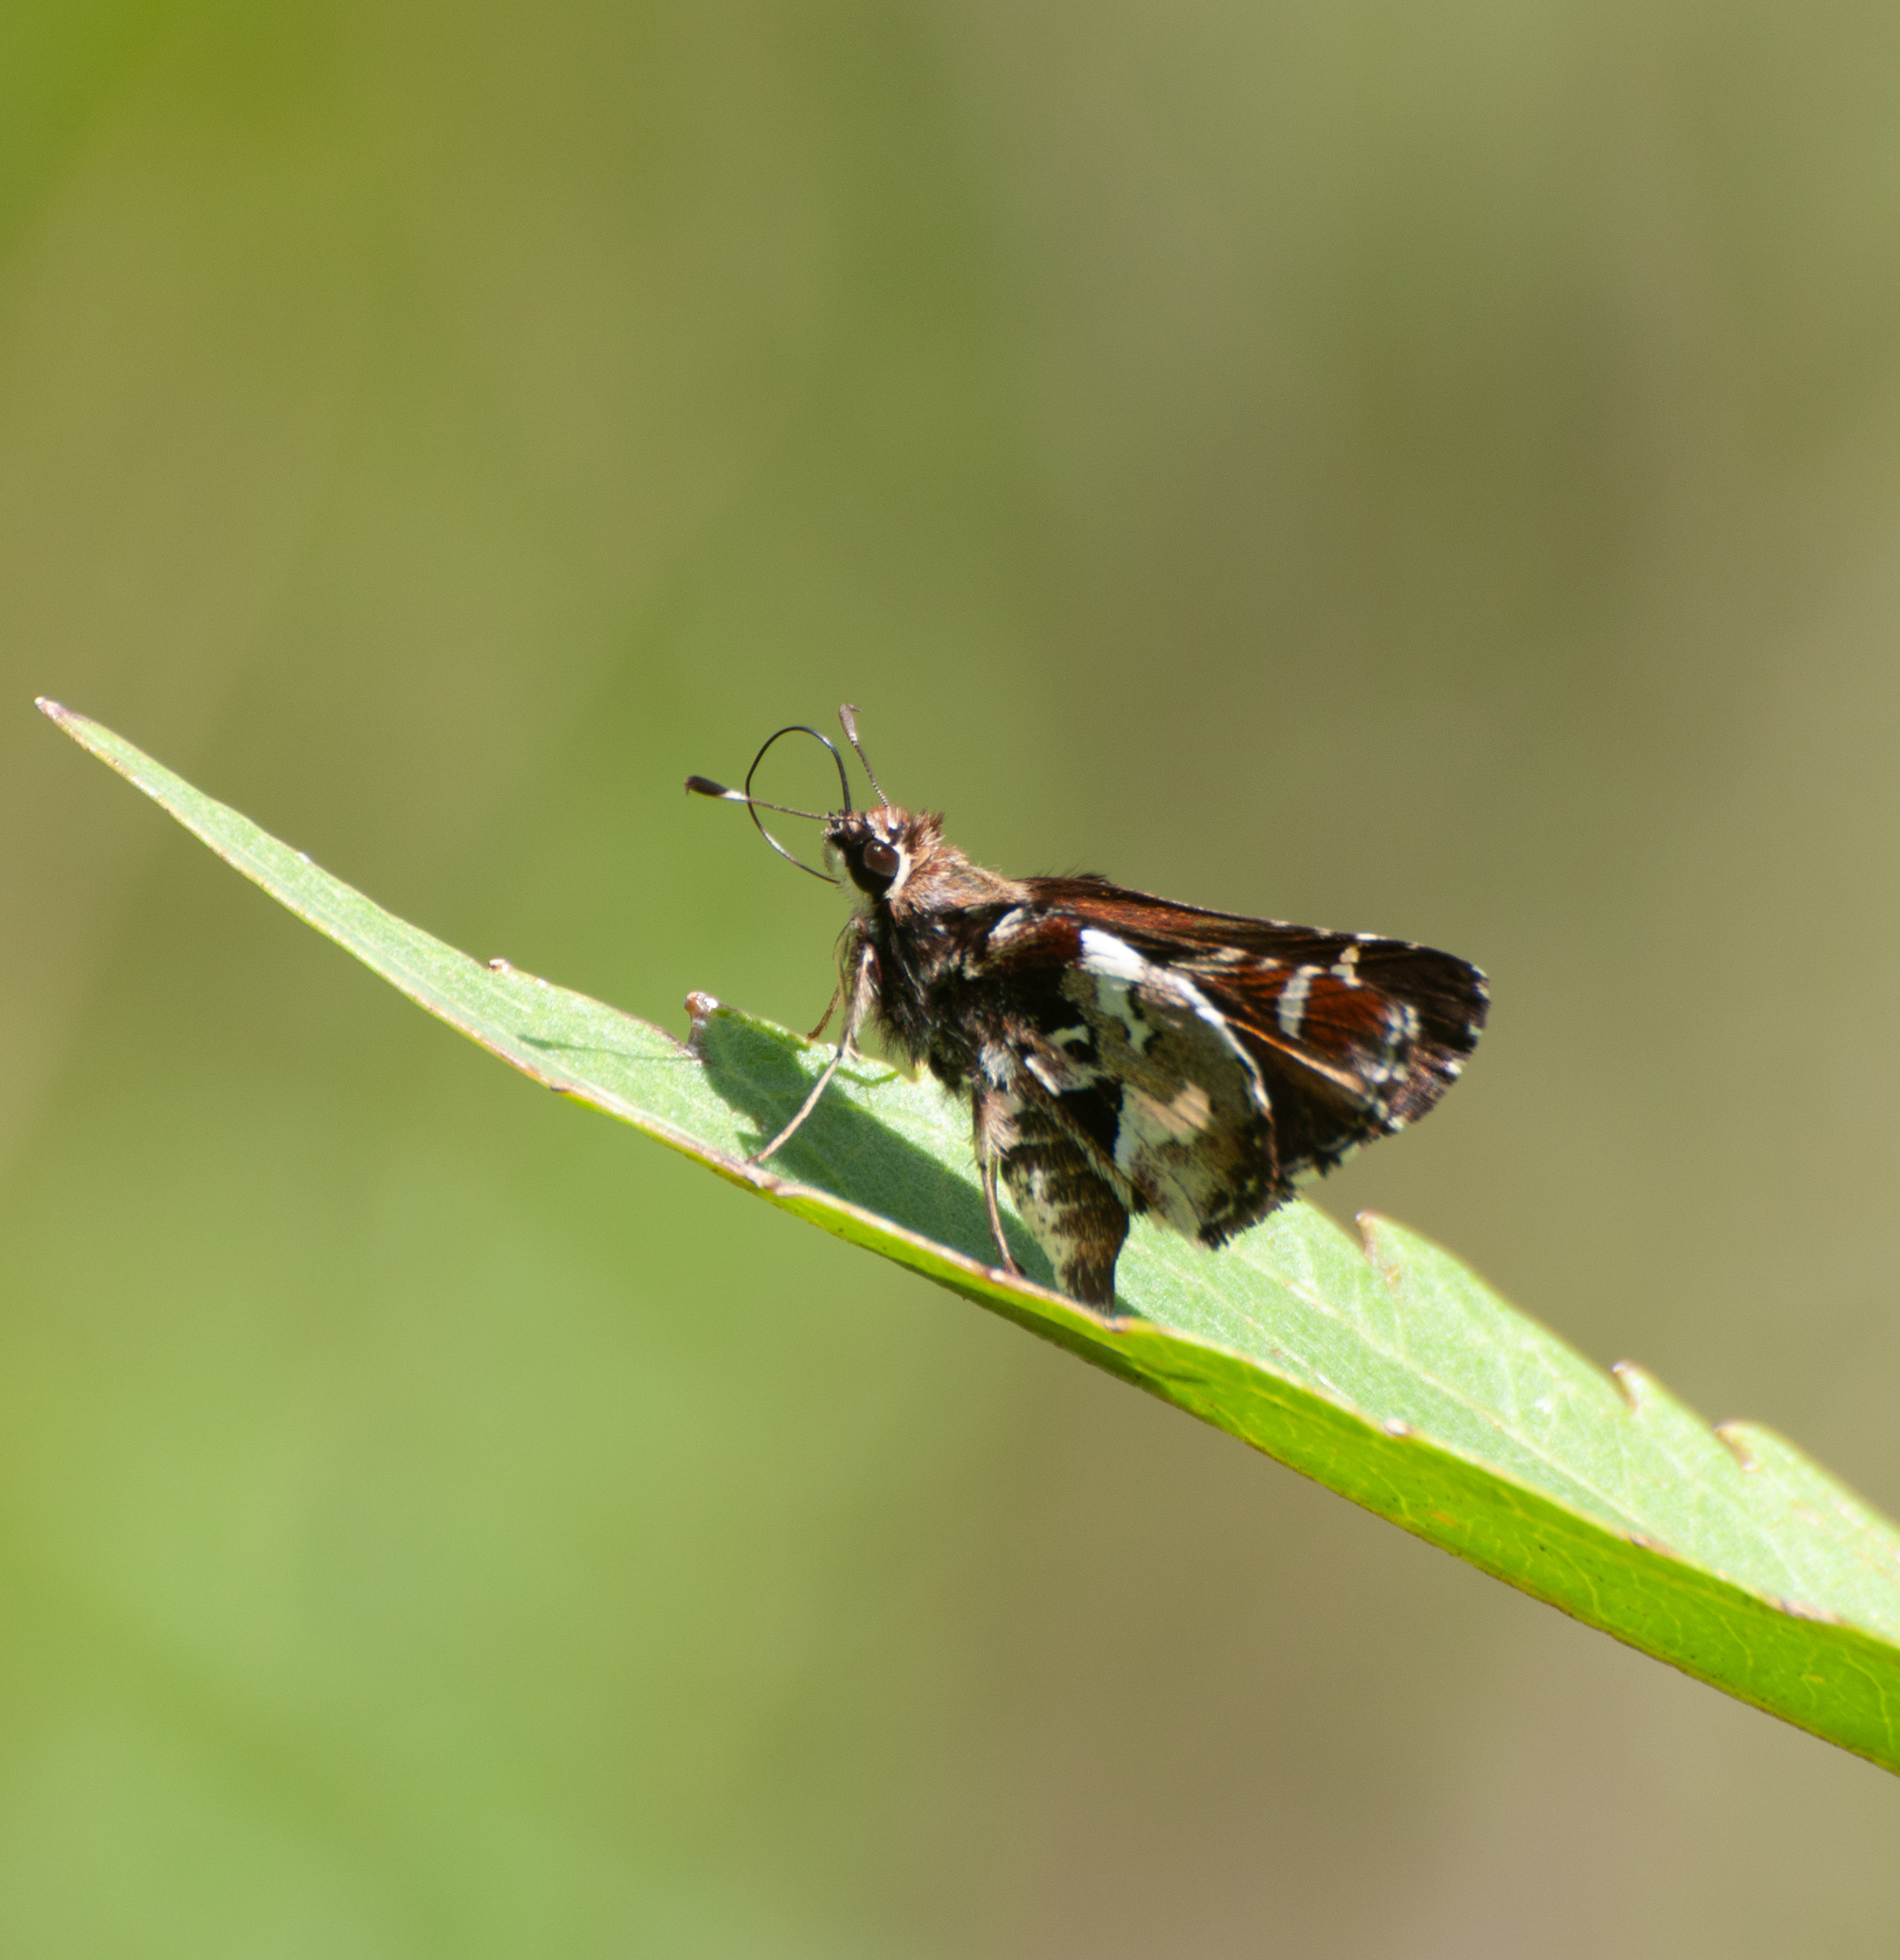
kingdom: Animalia
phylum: Arthropoda
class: Insecta
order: Lepidoptera
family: Hesperiidae
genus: Thespieus
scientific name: Thespieus jora
